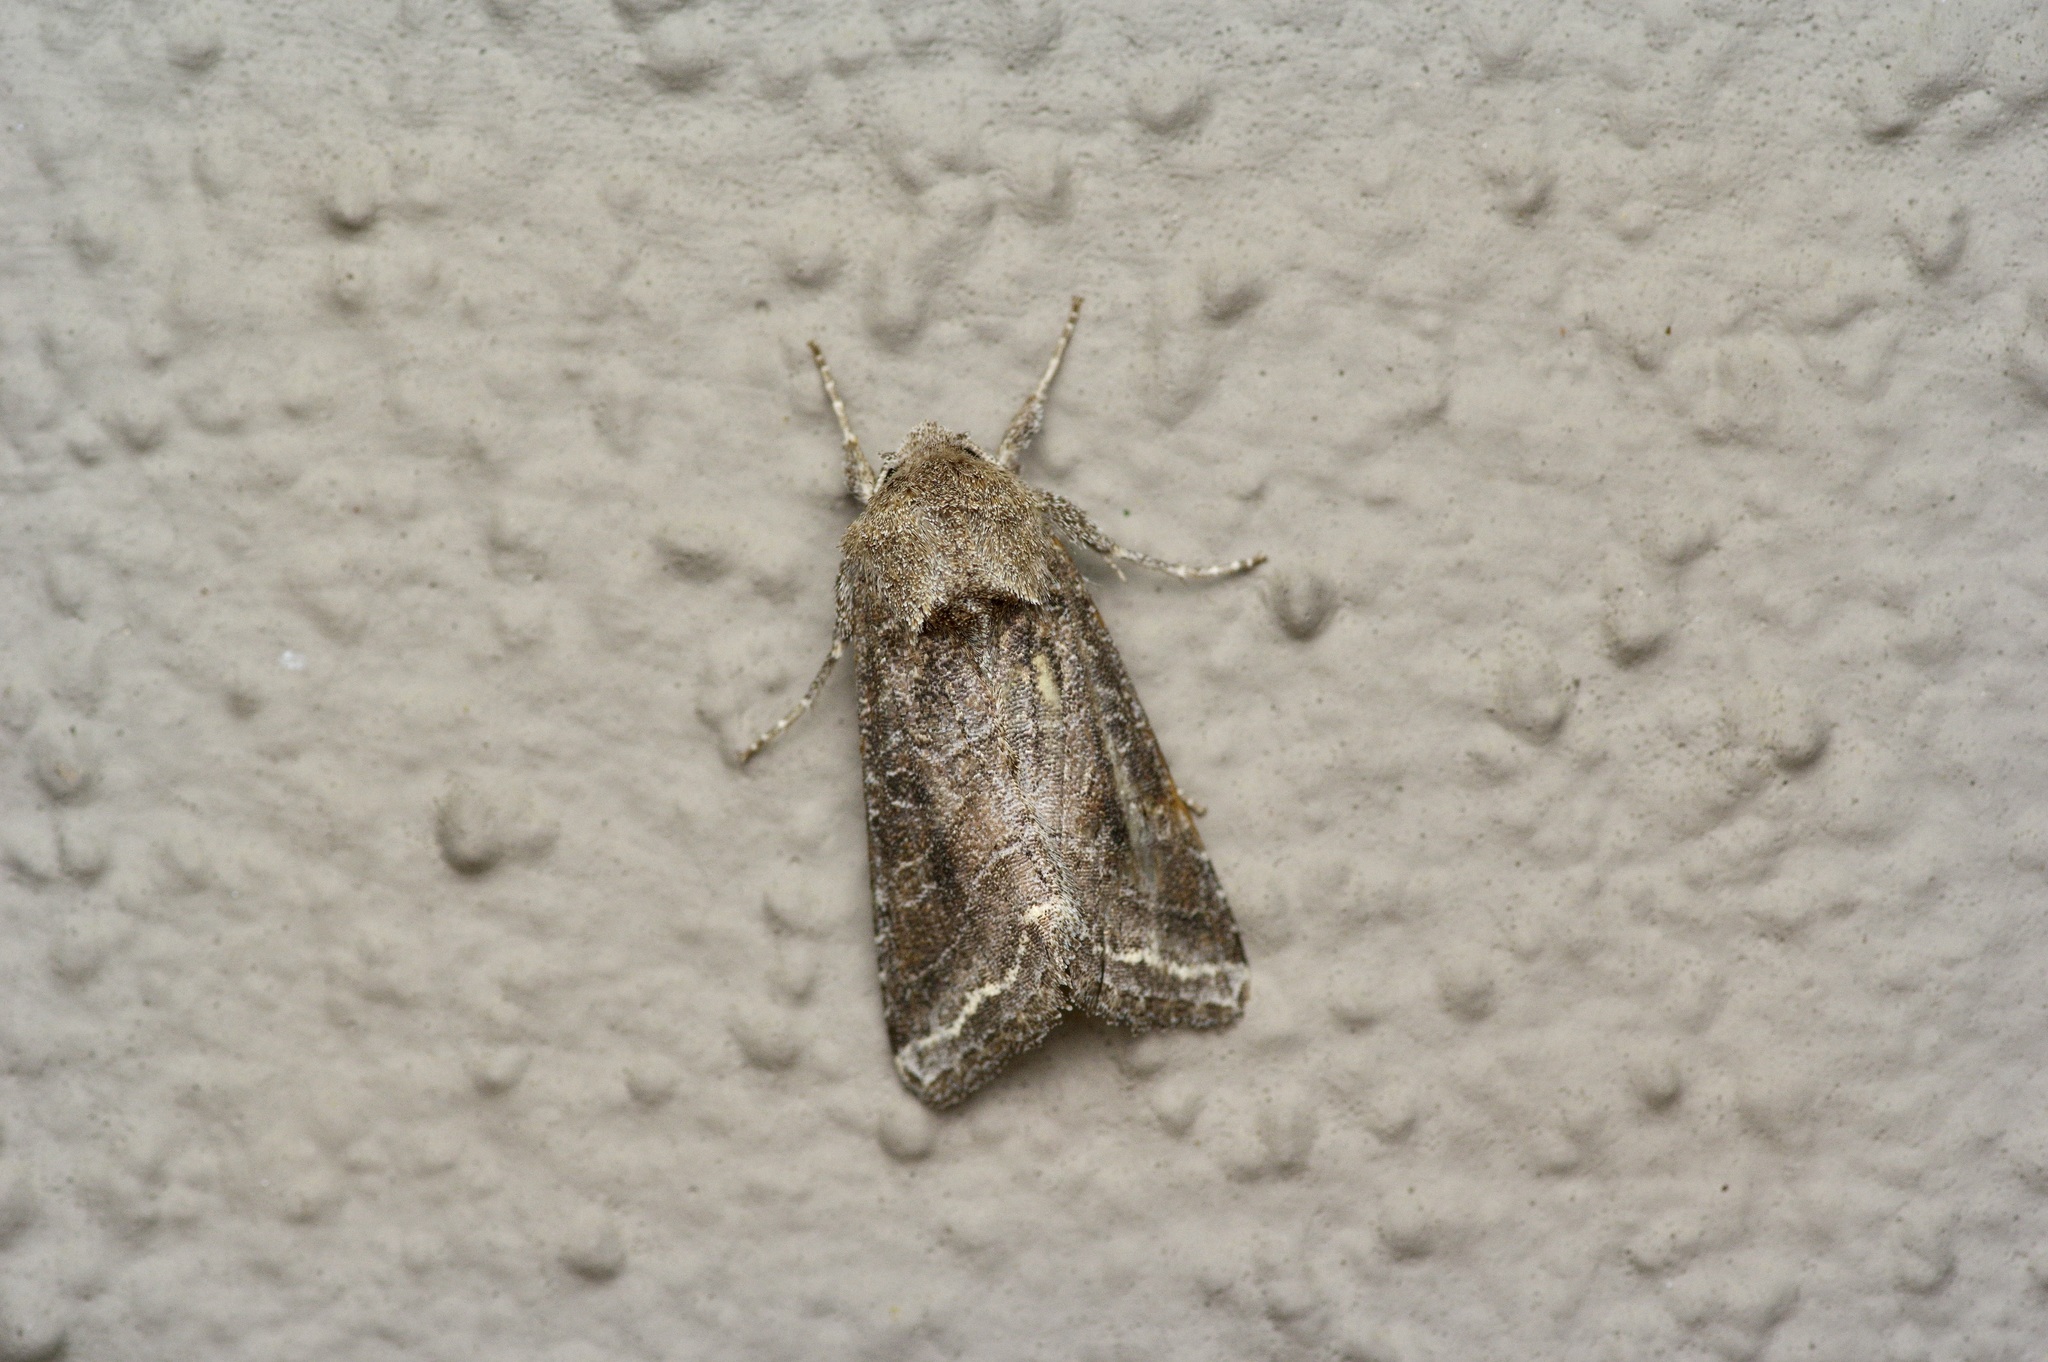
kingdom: Animalia
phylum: Arthropoda
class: Insecta
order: Lepidoptera
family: Noctuidae
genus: Lacinipolia
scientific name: Lacinipolia erecta
